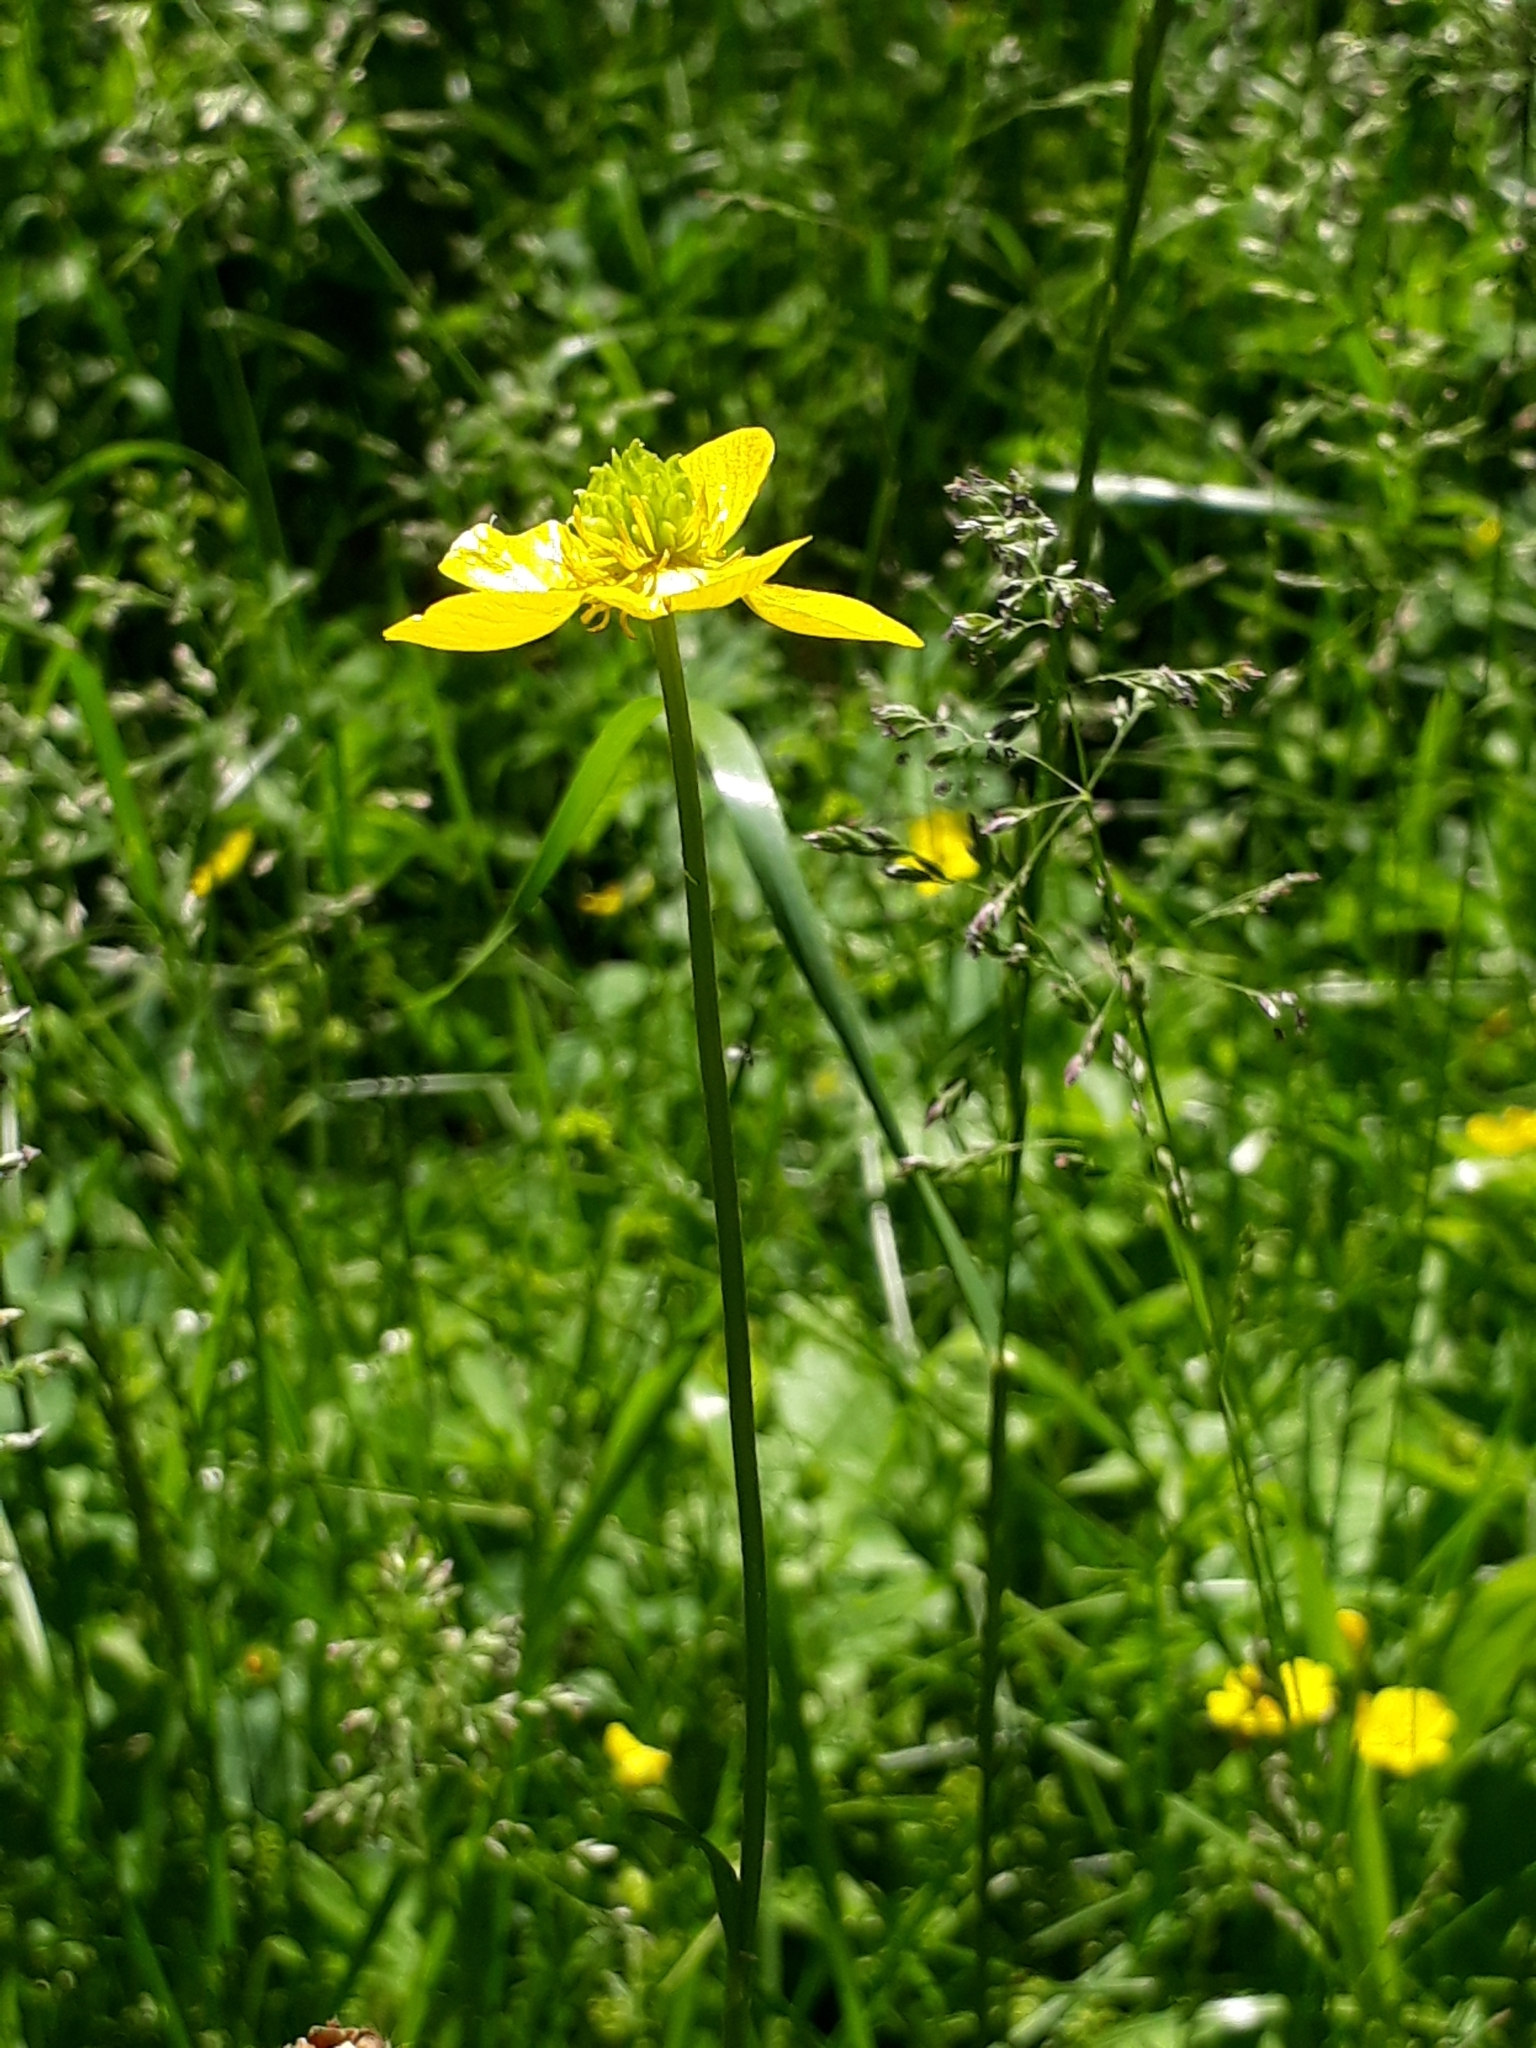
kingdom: Plantae
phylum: Tracheophyta
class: Magnoliopsida
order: Ranunculales
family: Ranunculaceae
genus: Ranunculus
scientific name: Ranunculus polyanthemos
